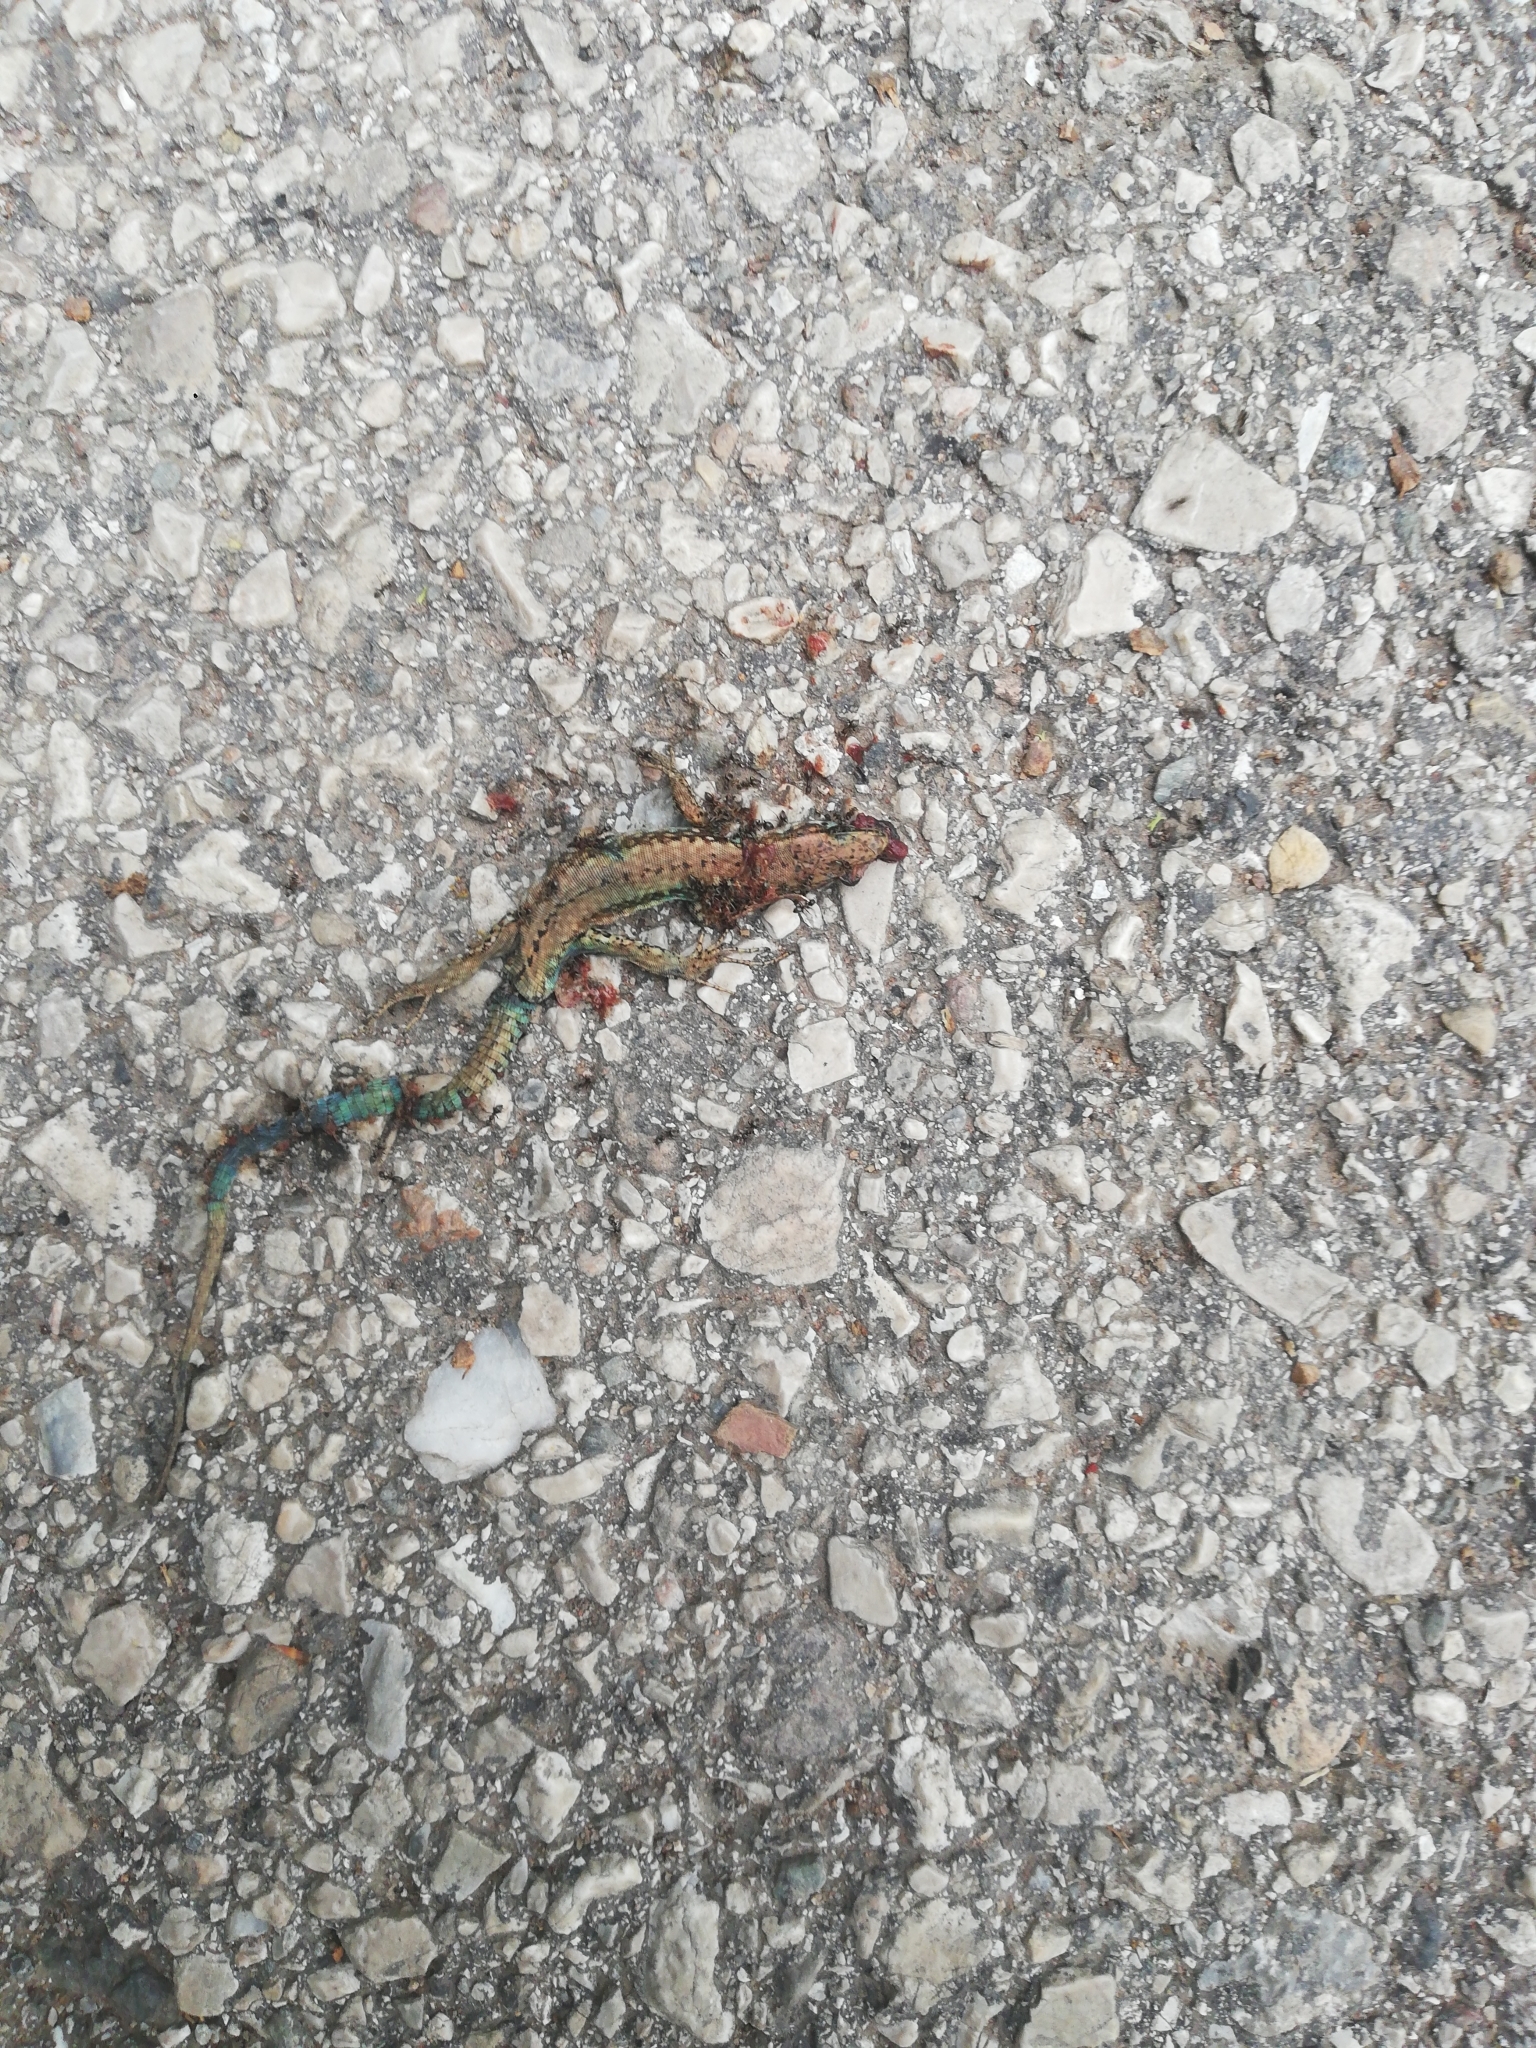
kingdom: Animalia
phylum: Chordata
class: Squamata
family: Lacertidae
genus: Podarcis
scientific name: Podarcis muralis
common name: Common wall lizard
